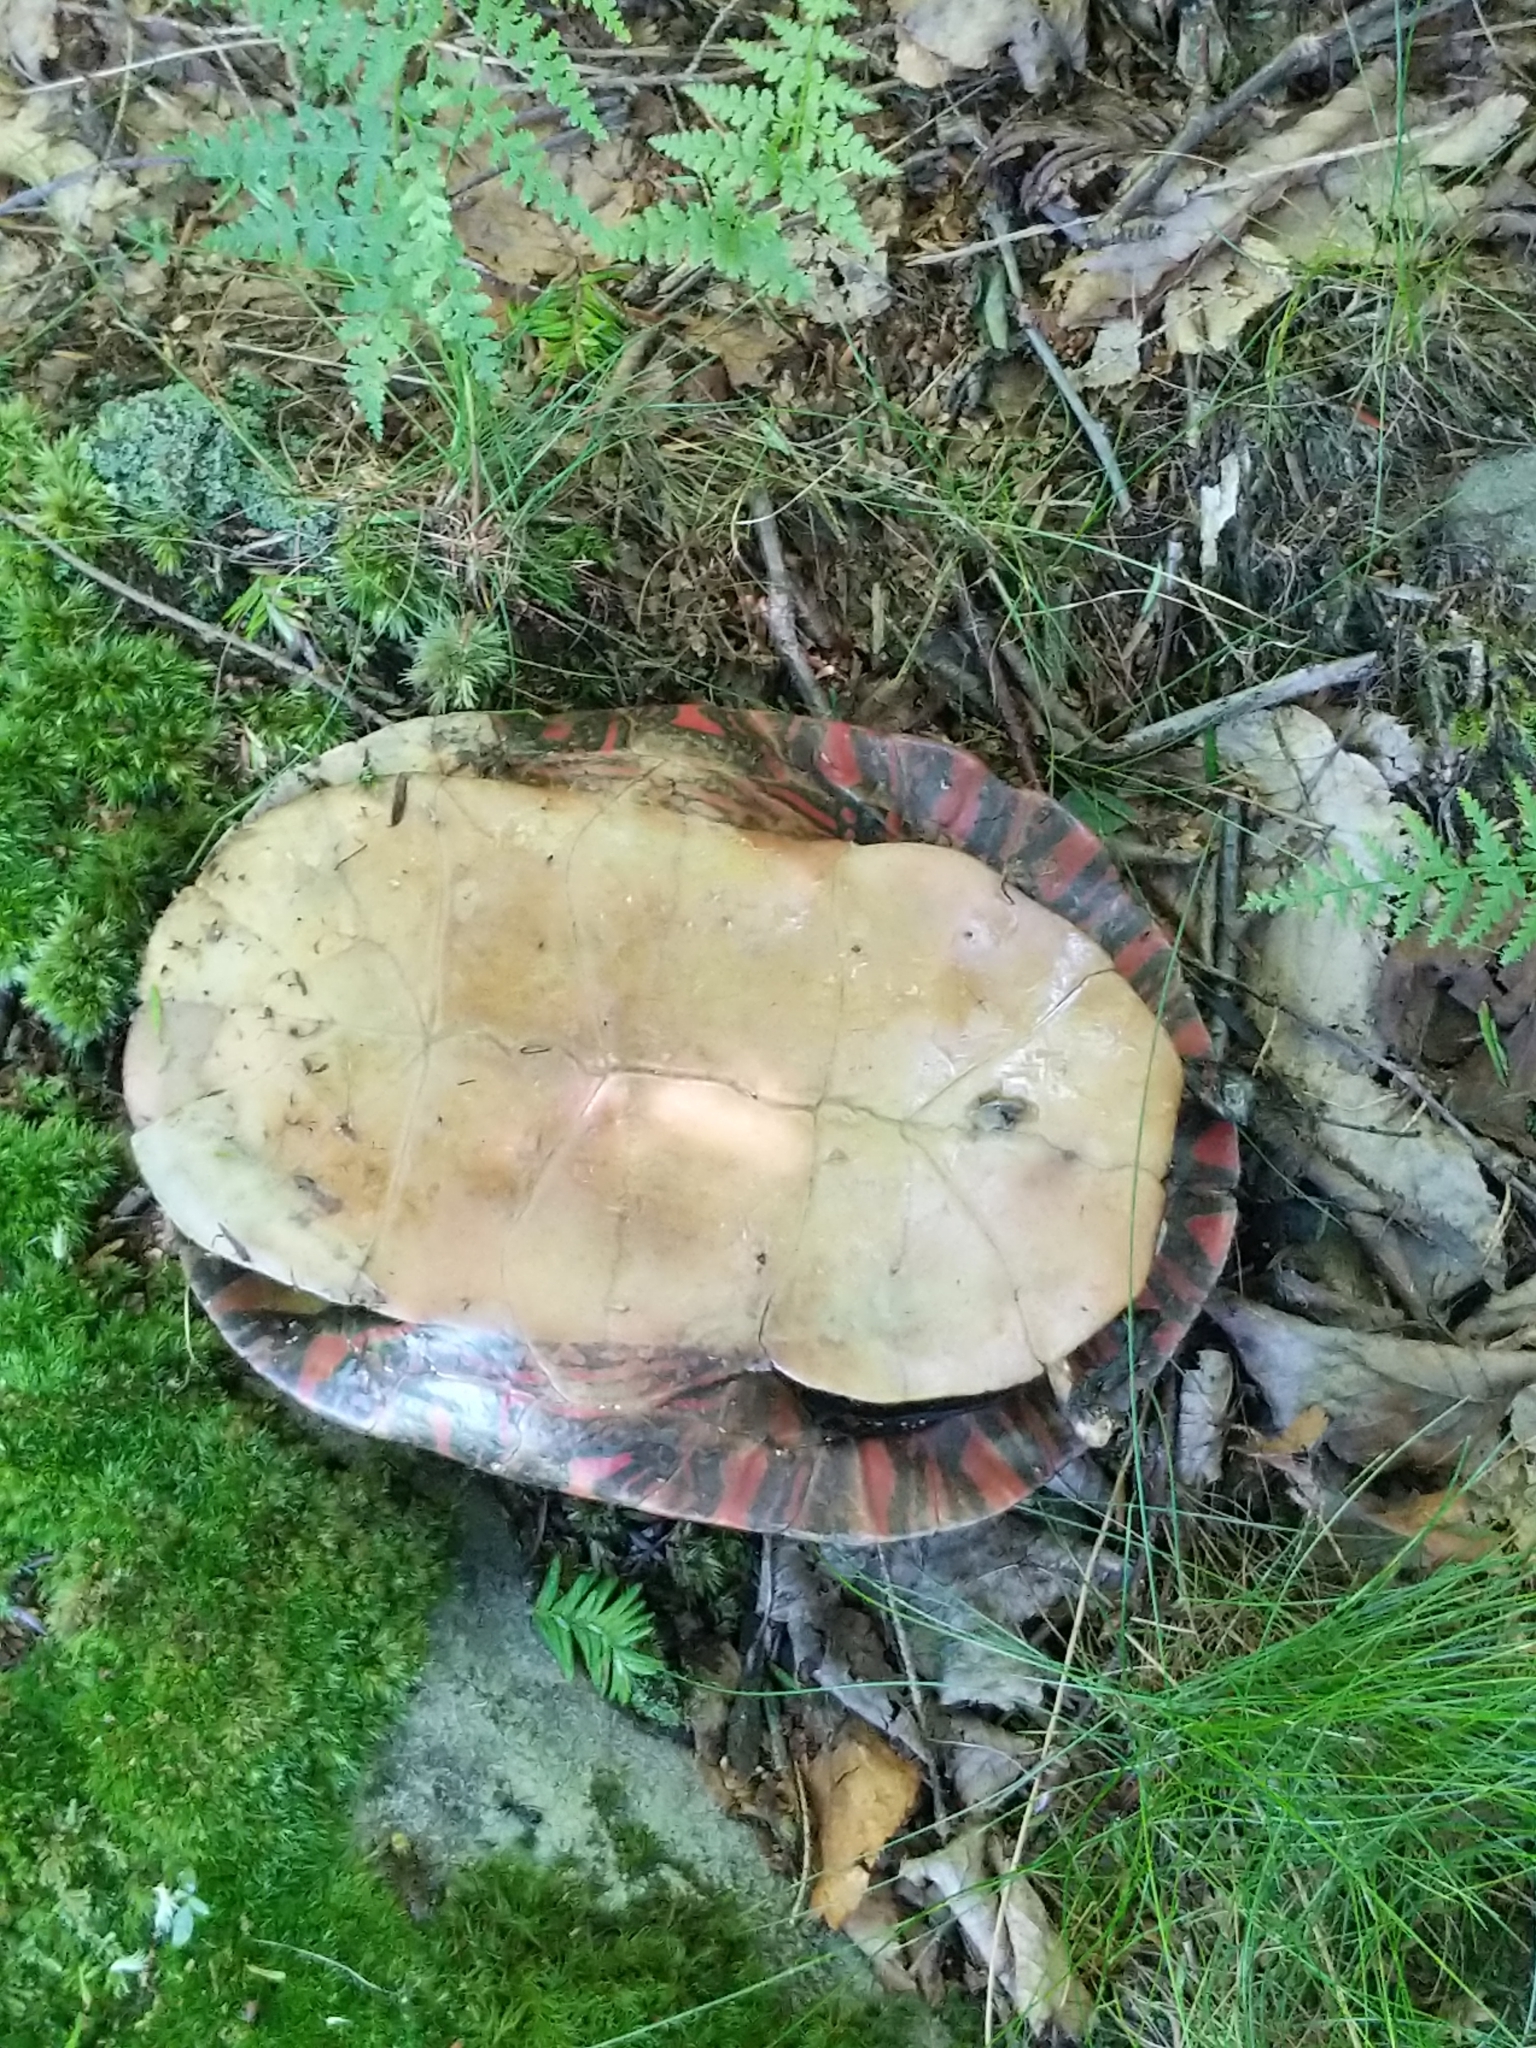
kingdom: Animalia
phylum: Chordata
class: Testudines
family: Emydidae
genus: Chrysemys
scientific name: Chrysemys picta
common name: Painted turtle
